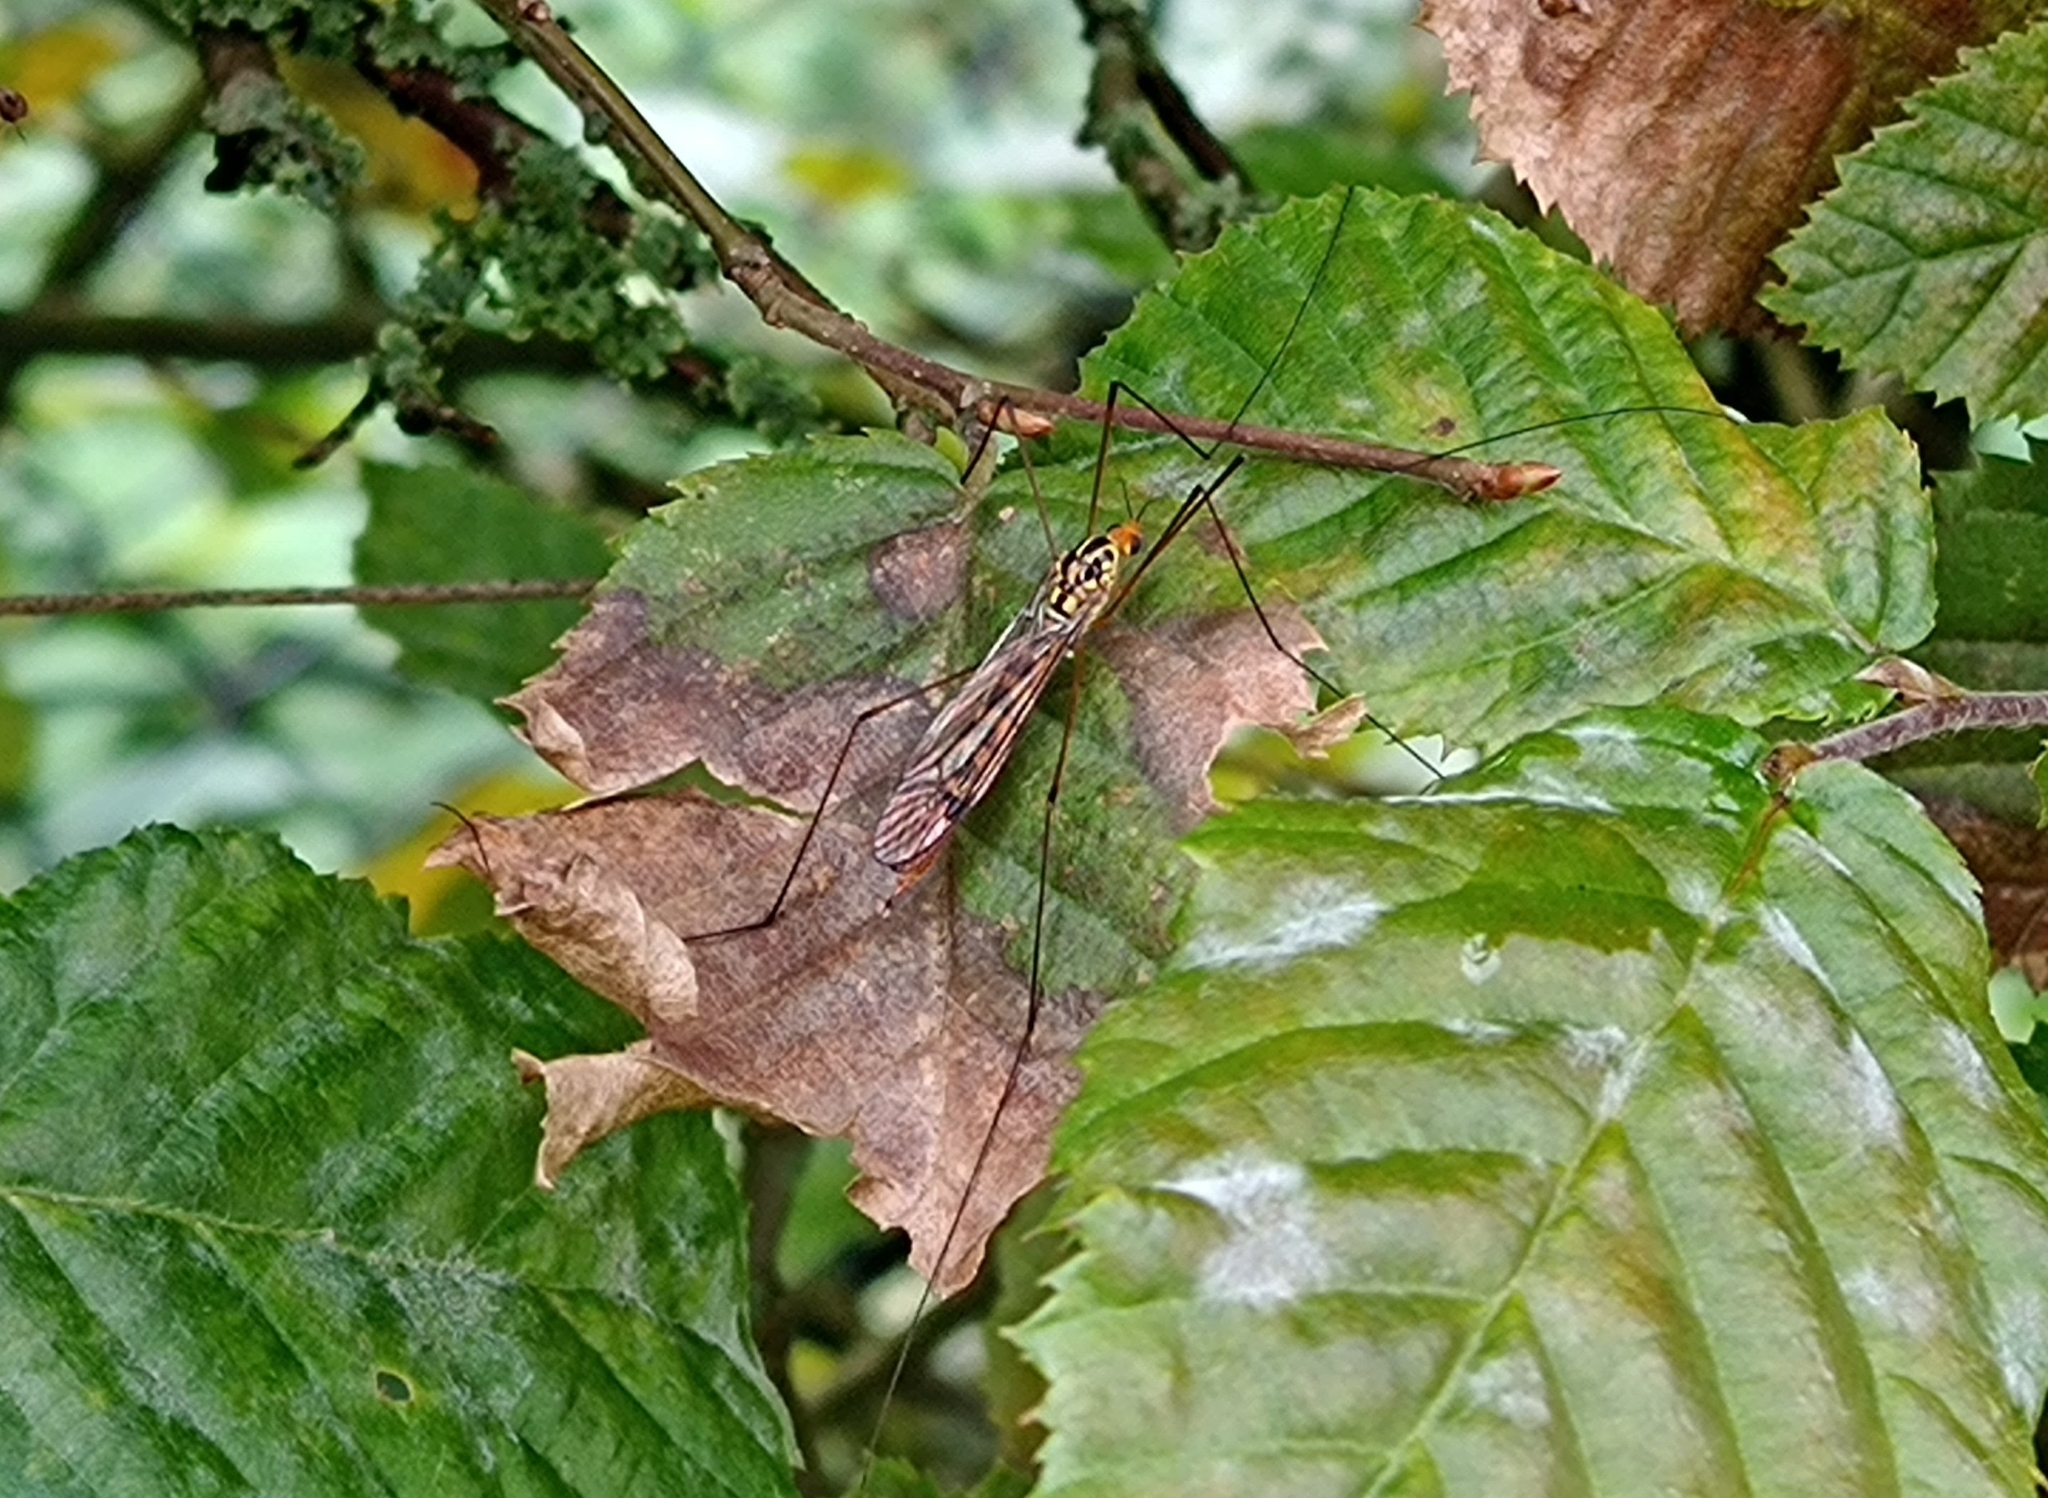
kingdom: Animalia
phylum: Arthropoda
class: Insecta
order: Diptera
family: Tipulidae
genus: Nephrotoma
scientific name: Nephrotoma flavipalpis
